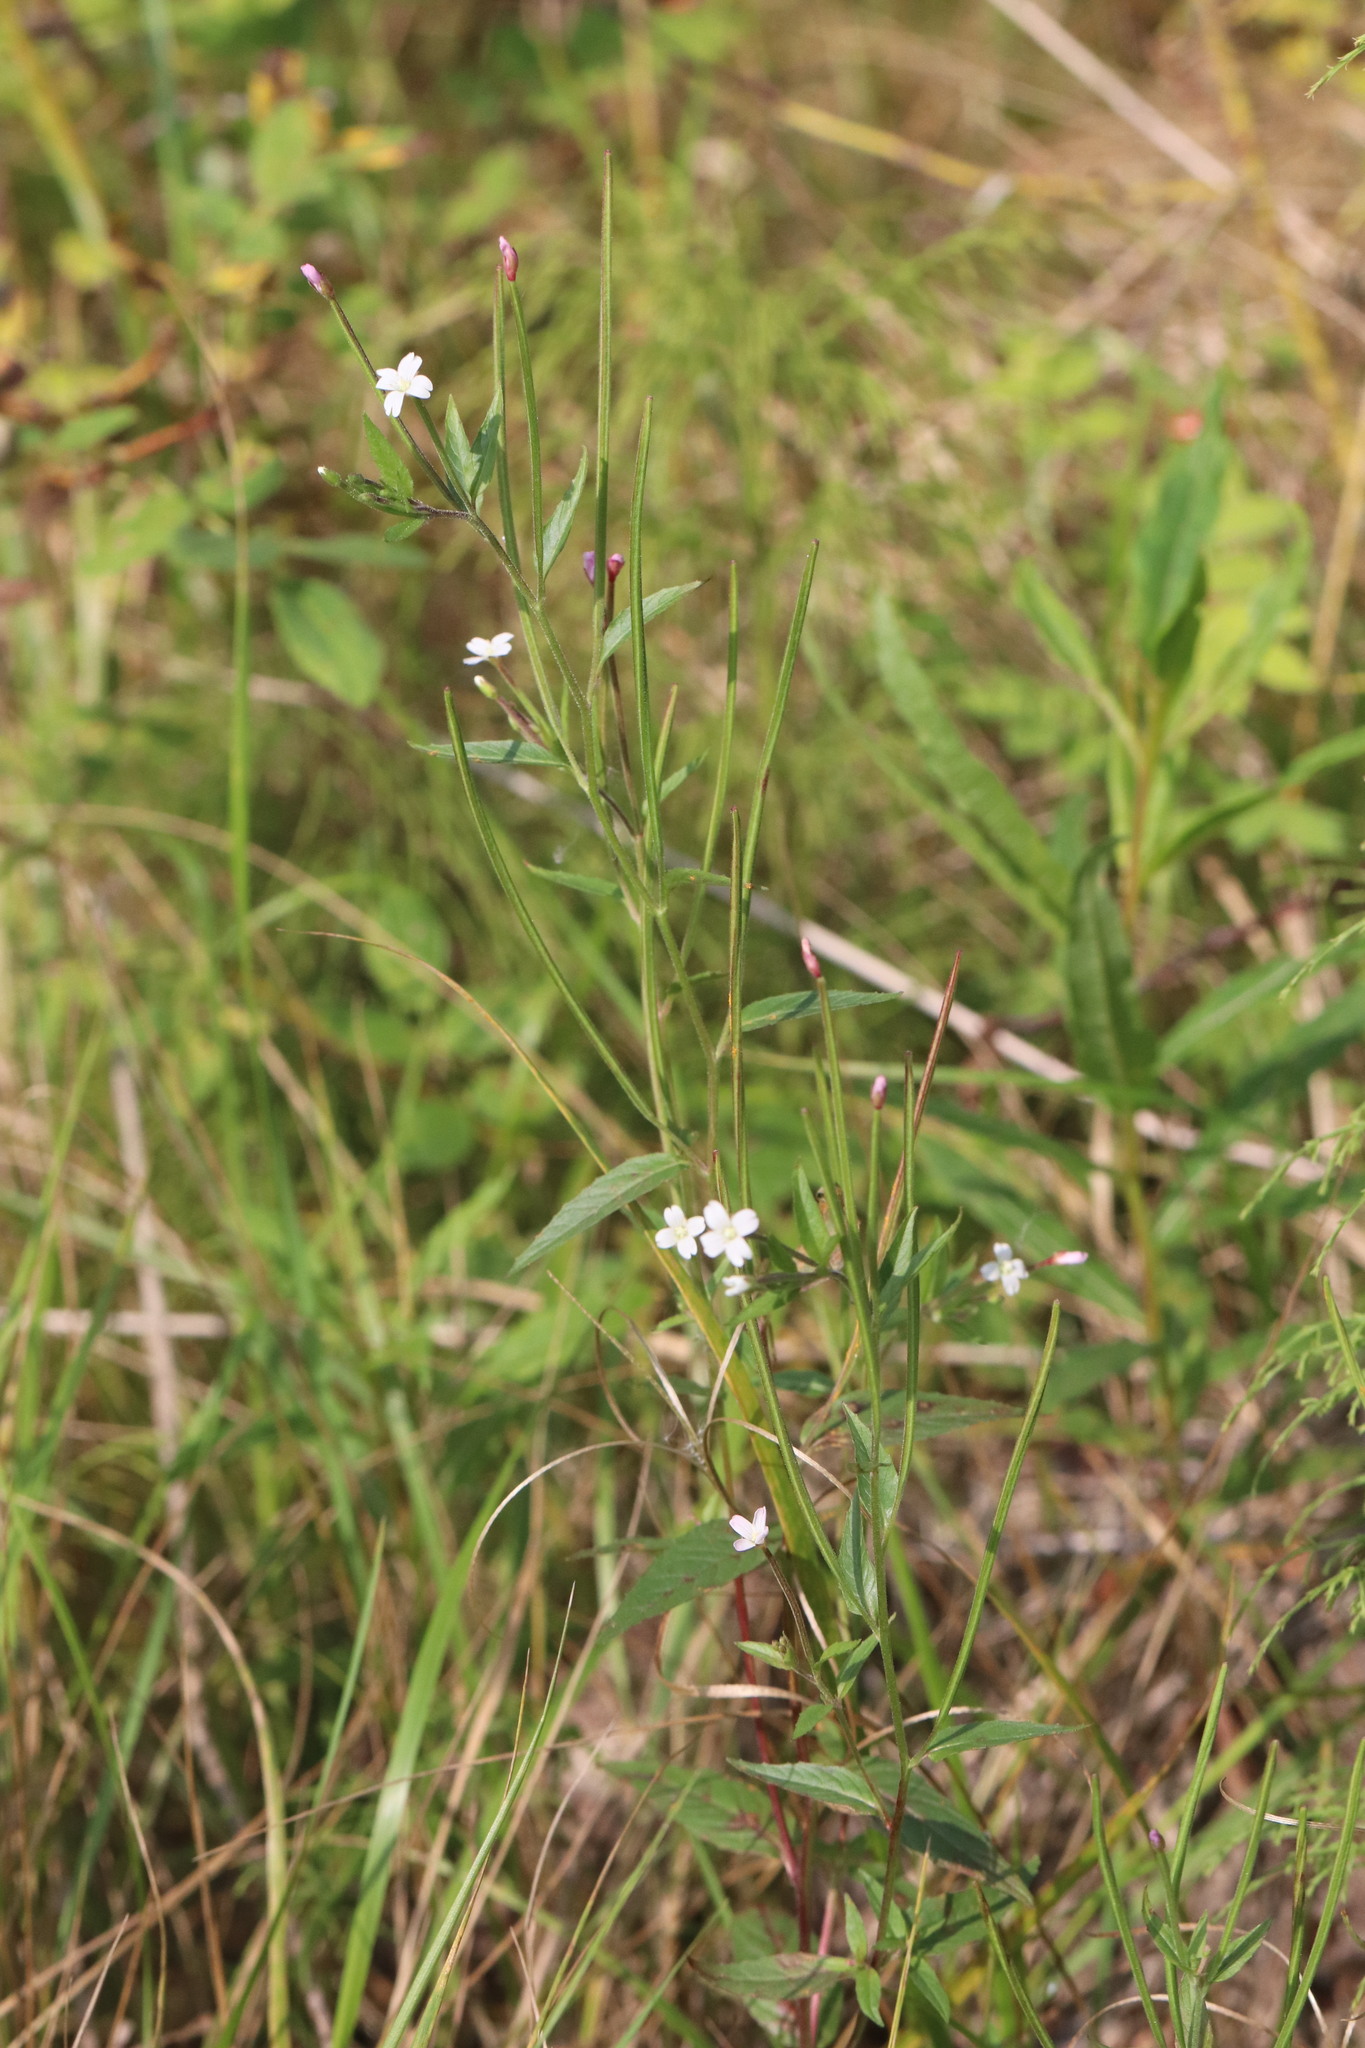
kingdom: Plantae
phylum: Tracheophyta
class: Magnoliopsida
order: Myrtales
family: Onagraceae
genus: Epilobium
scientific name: Epilobium pseudorubescens
